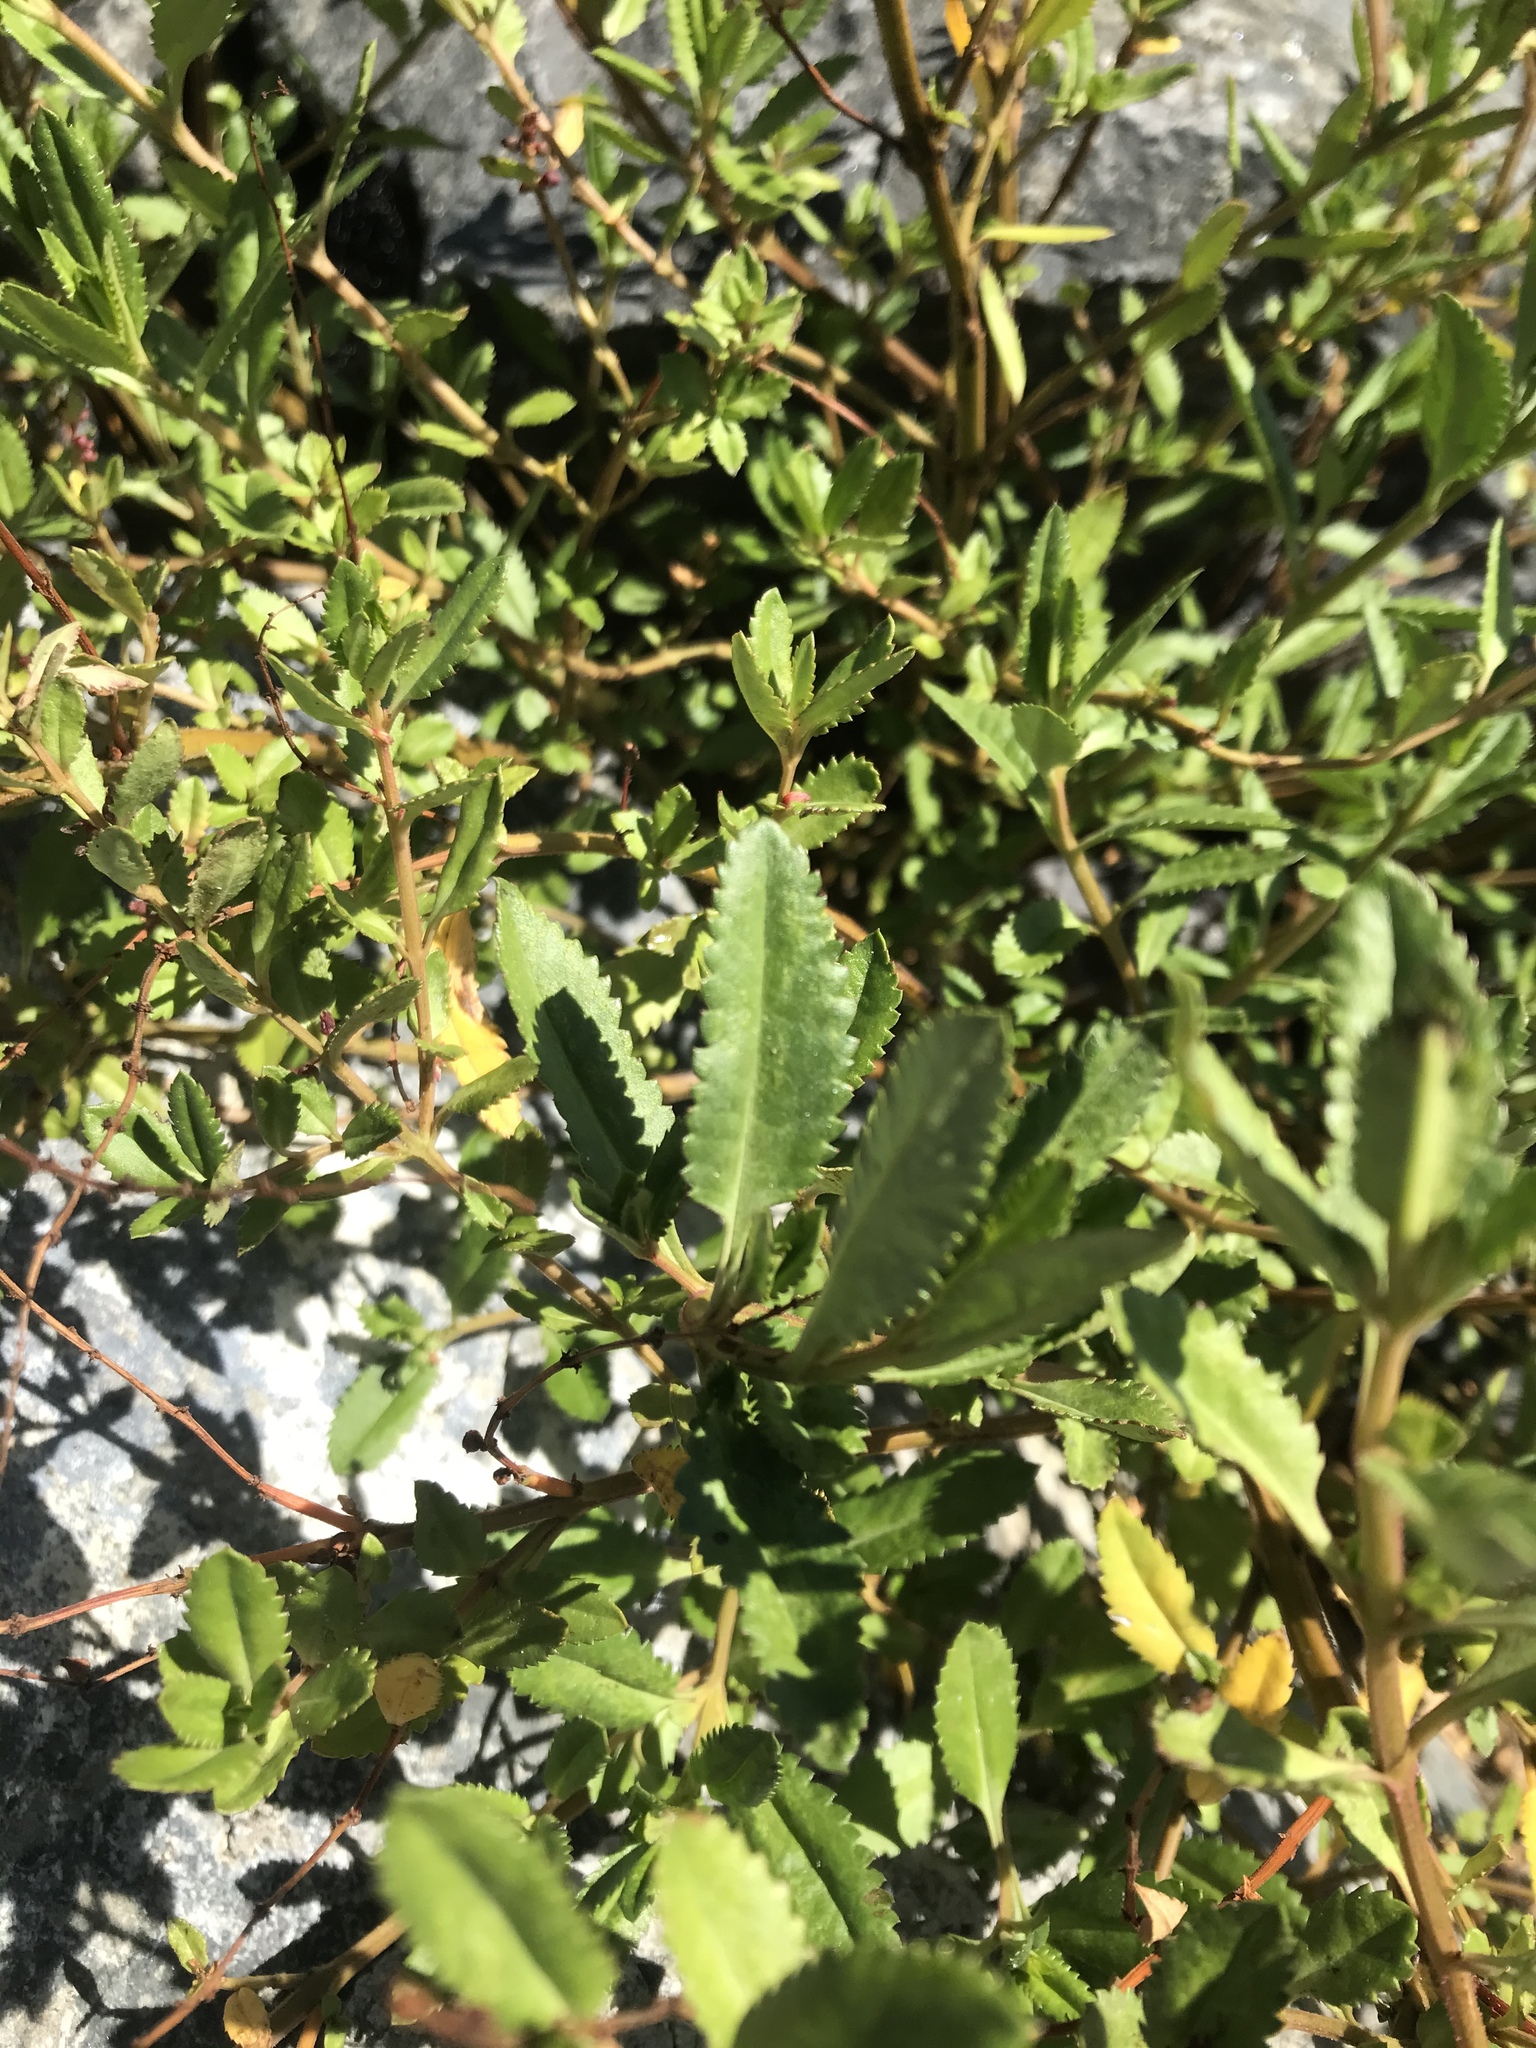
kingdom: Plantae
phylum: Tracheophyta
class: Magnoliopsida
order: Saxifragales
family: Haloragaceae
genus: Haloragis
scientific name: Haloragis erecta
